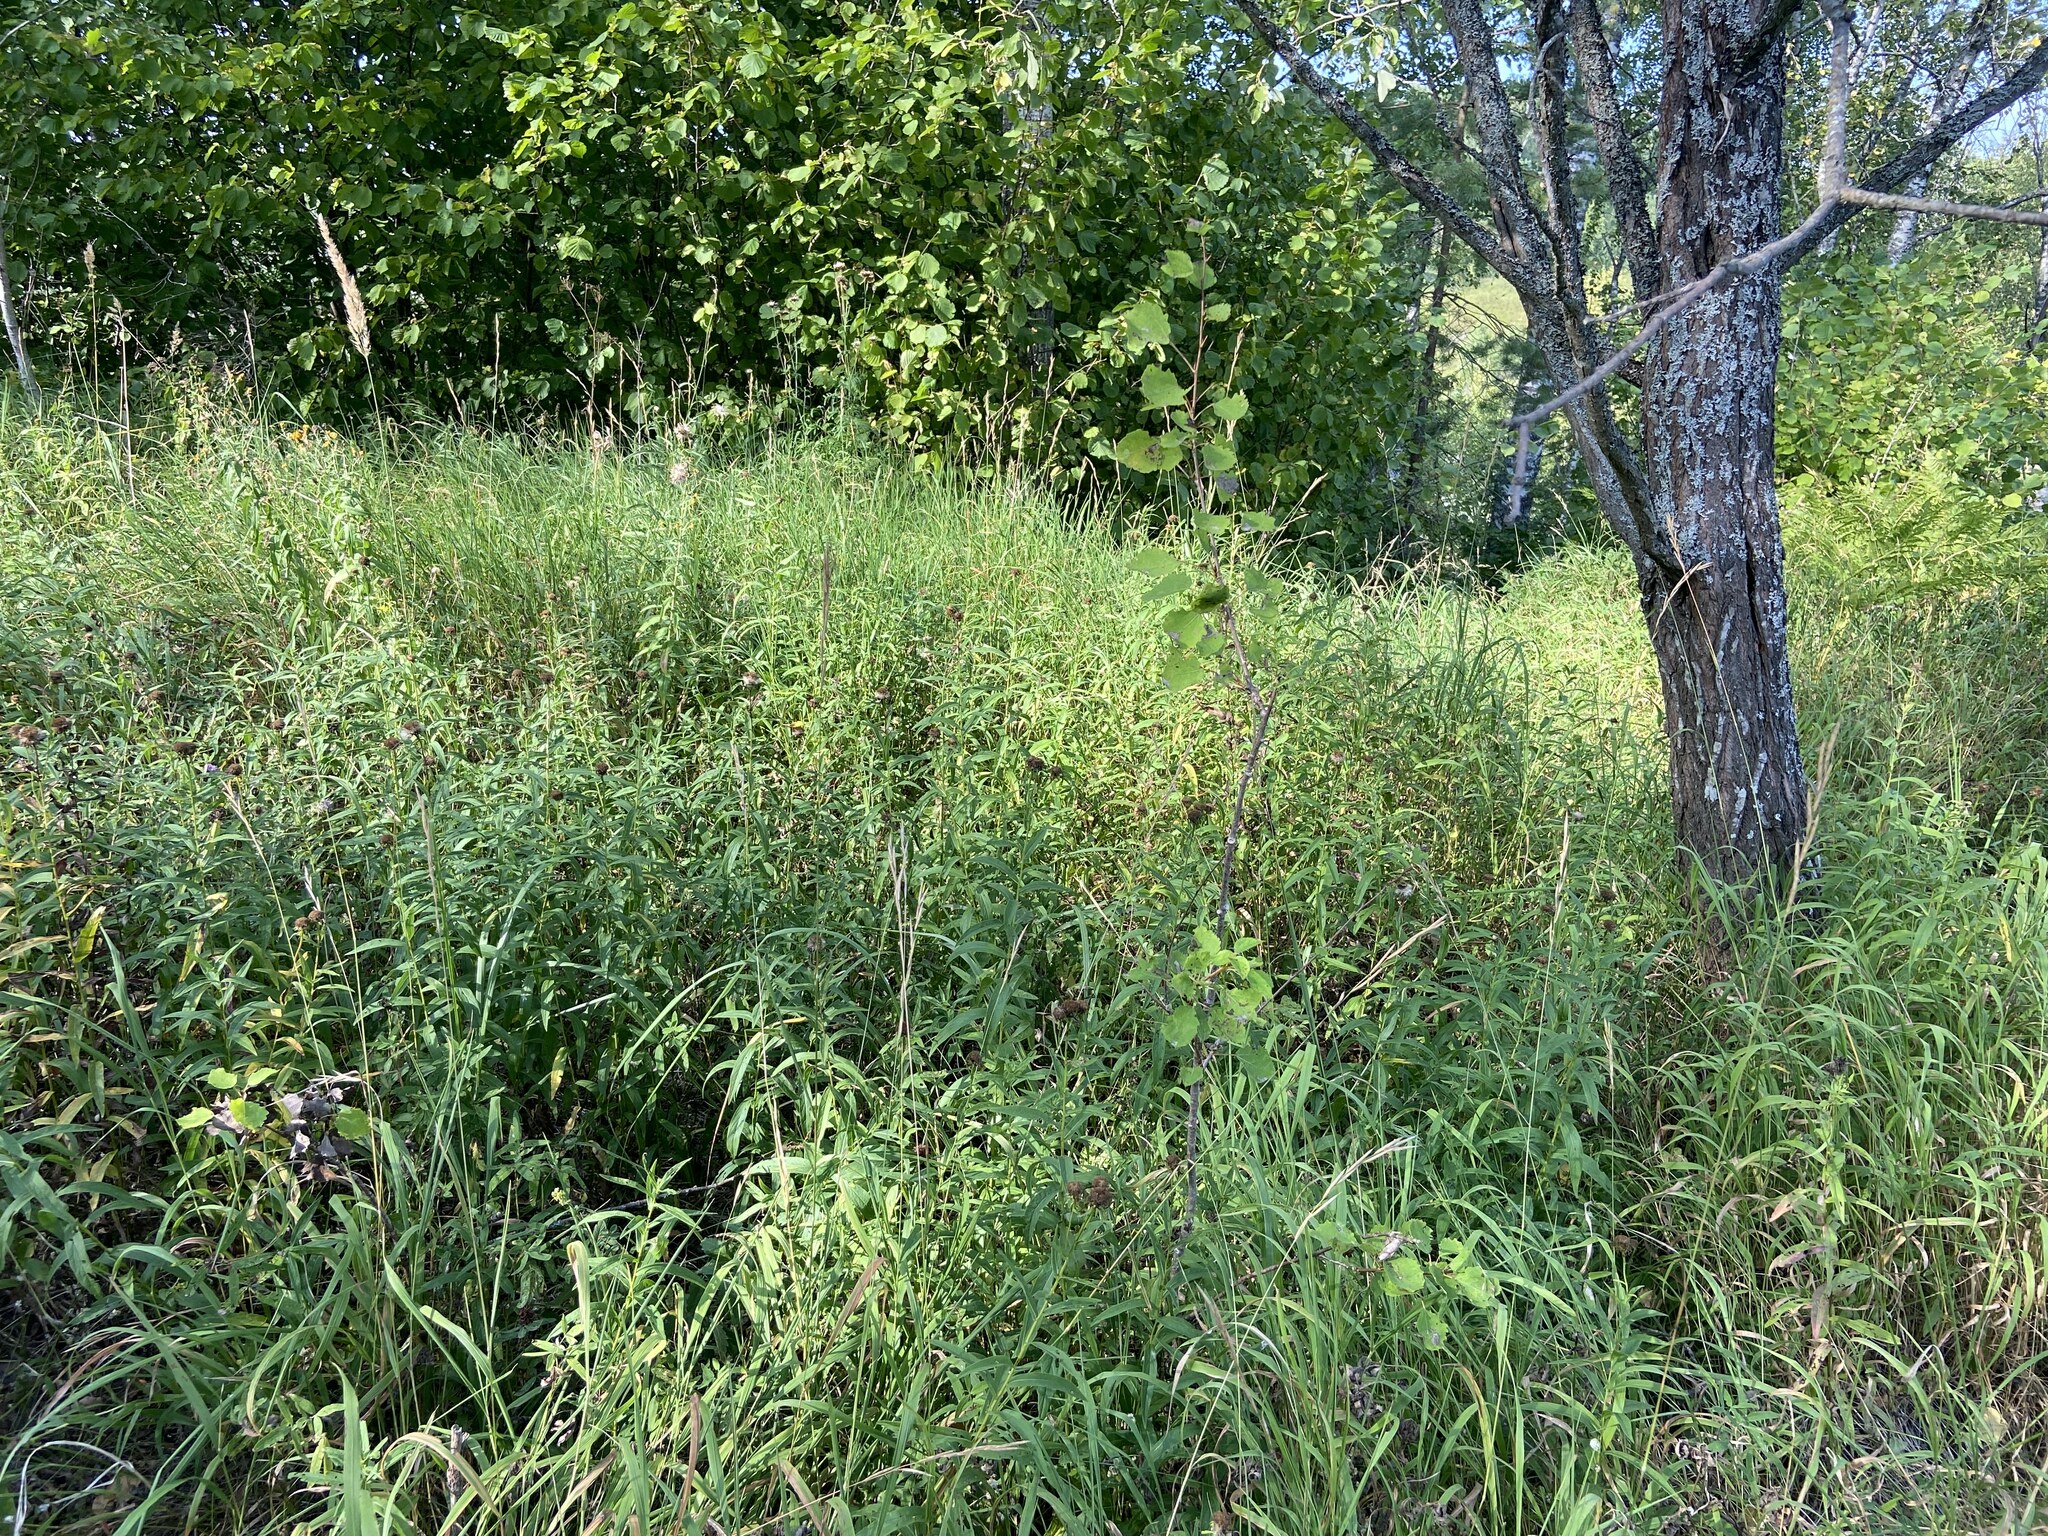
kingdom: Plantae
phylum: Tracheophyta
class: Magnoliopsida
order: Asterales
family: Asteraceae
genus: Pentanema
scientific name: Pentanema salicinum
